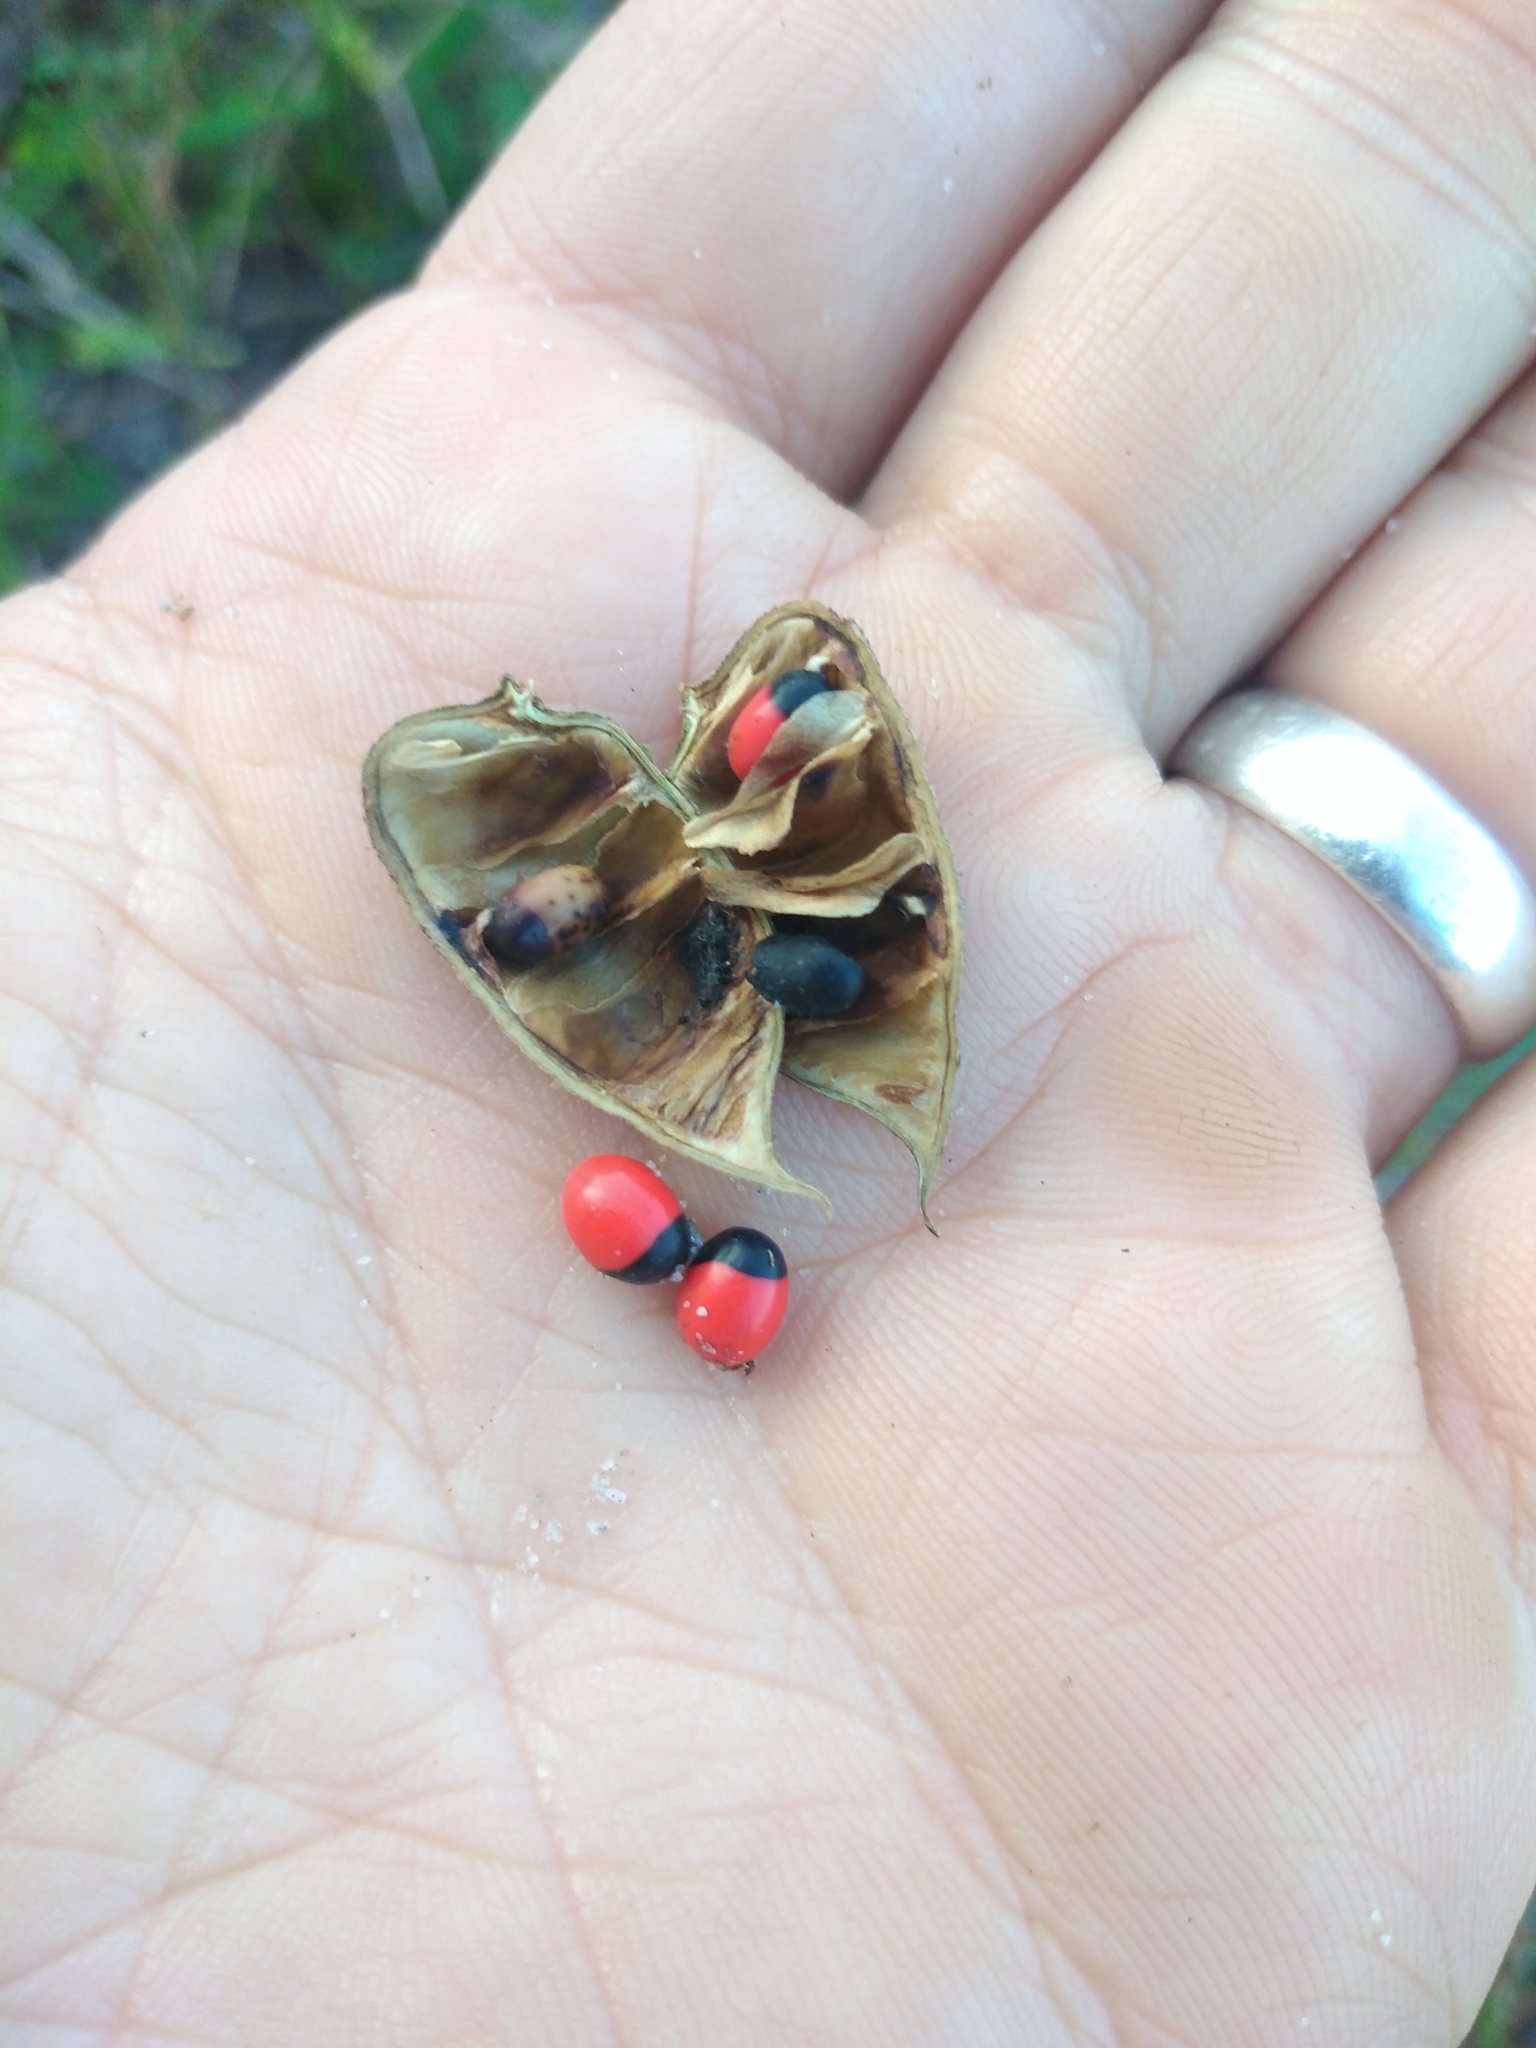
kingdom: Plantae
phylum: Tracheophyta
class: Magnoliopsida
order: Fabales
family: Fabaceae
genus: Abrus
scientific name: Abrus precatorius
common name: Rosarypea
